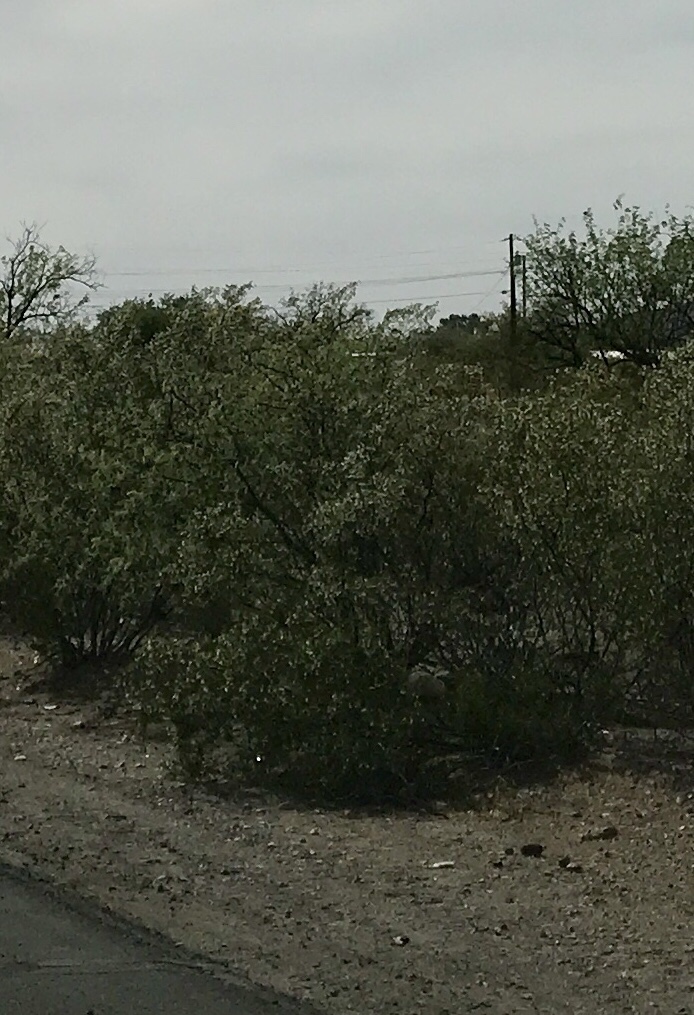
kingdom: Plantae
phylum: Tracheophyta
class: Magnoliopsida
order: Zygophyllales
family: Zygophyllaceae
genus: Larrea
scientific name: Larrea tridentata
